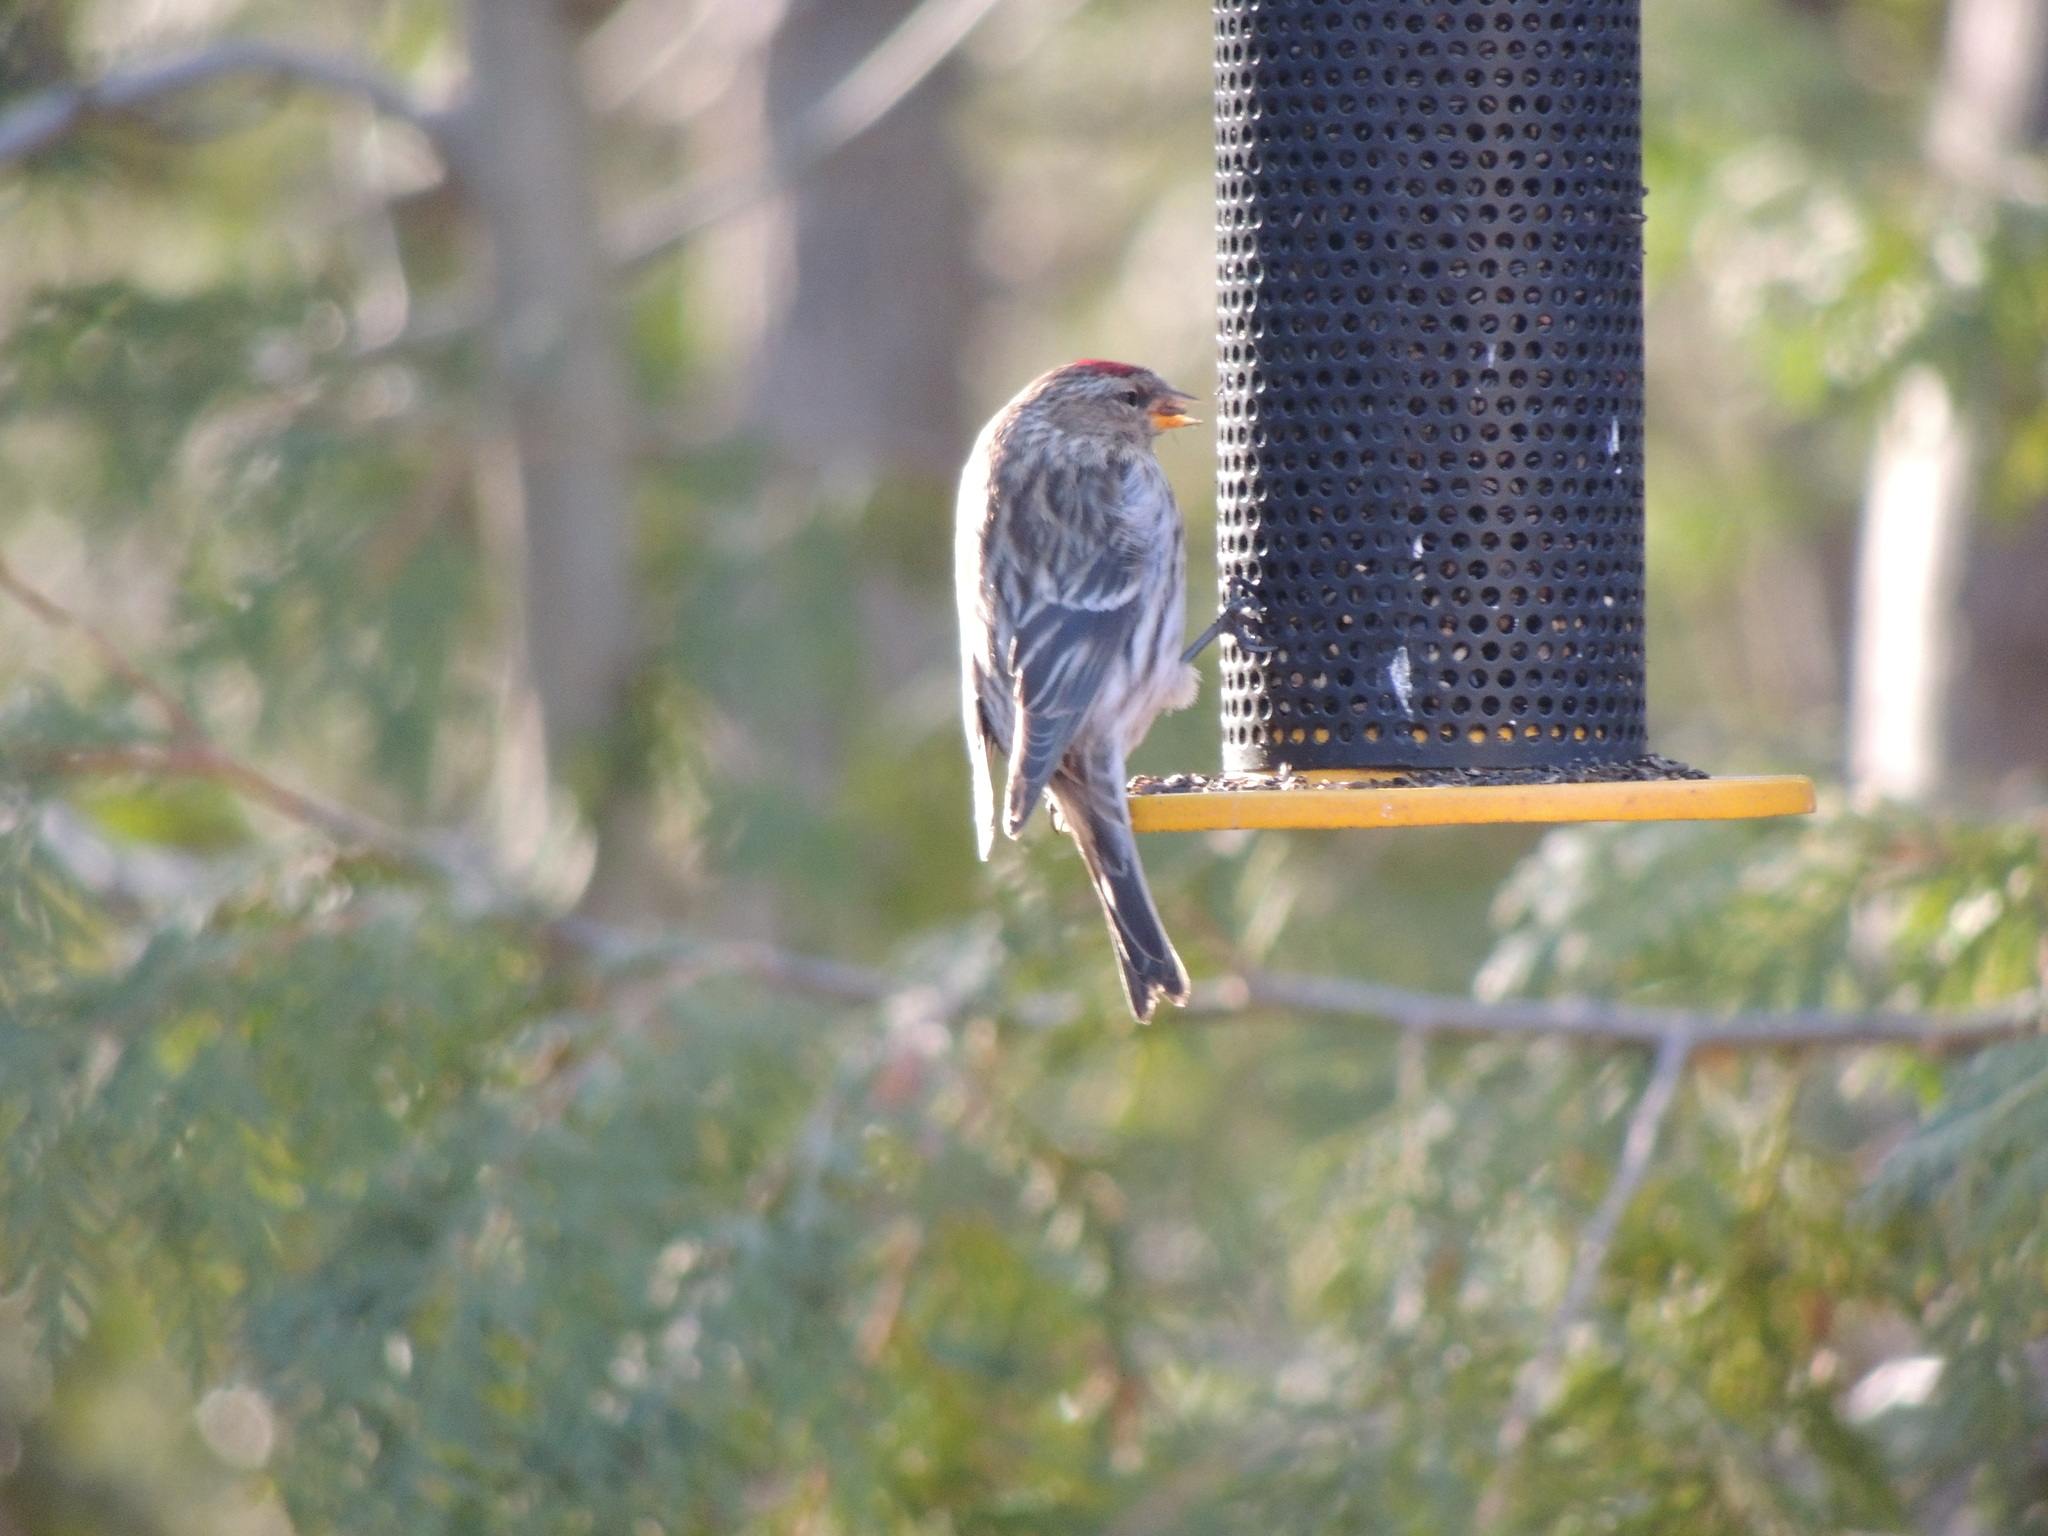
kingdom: Animalia
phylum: Chordata
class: Aves
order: Passeriformes
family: Fringillidae
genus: Acanthis
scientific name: Acanthis flammea
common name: Common redpoll
